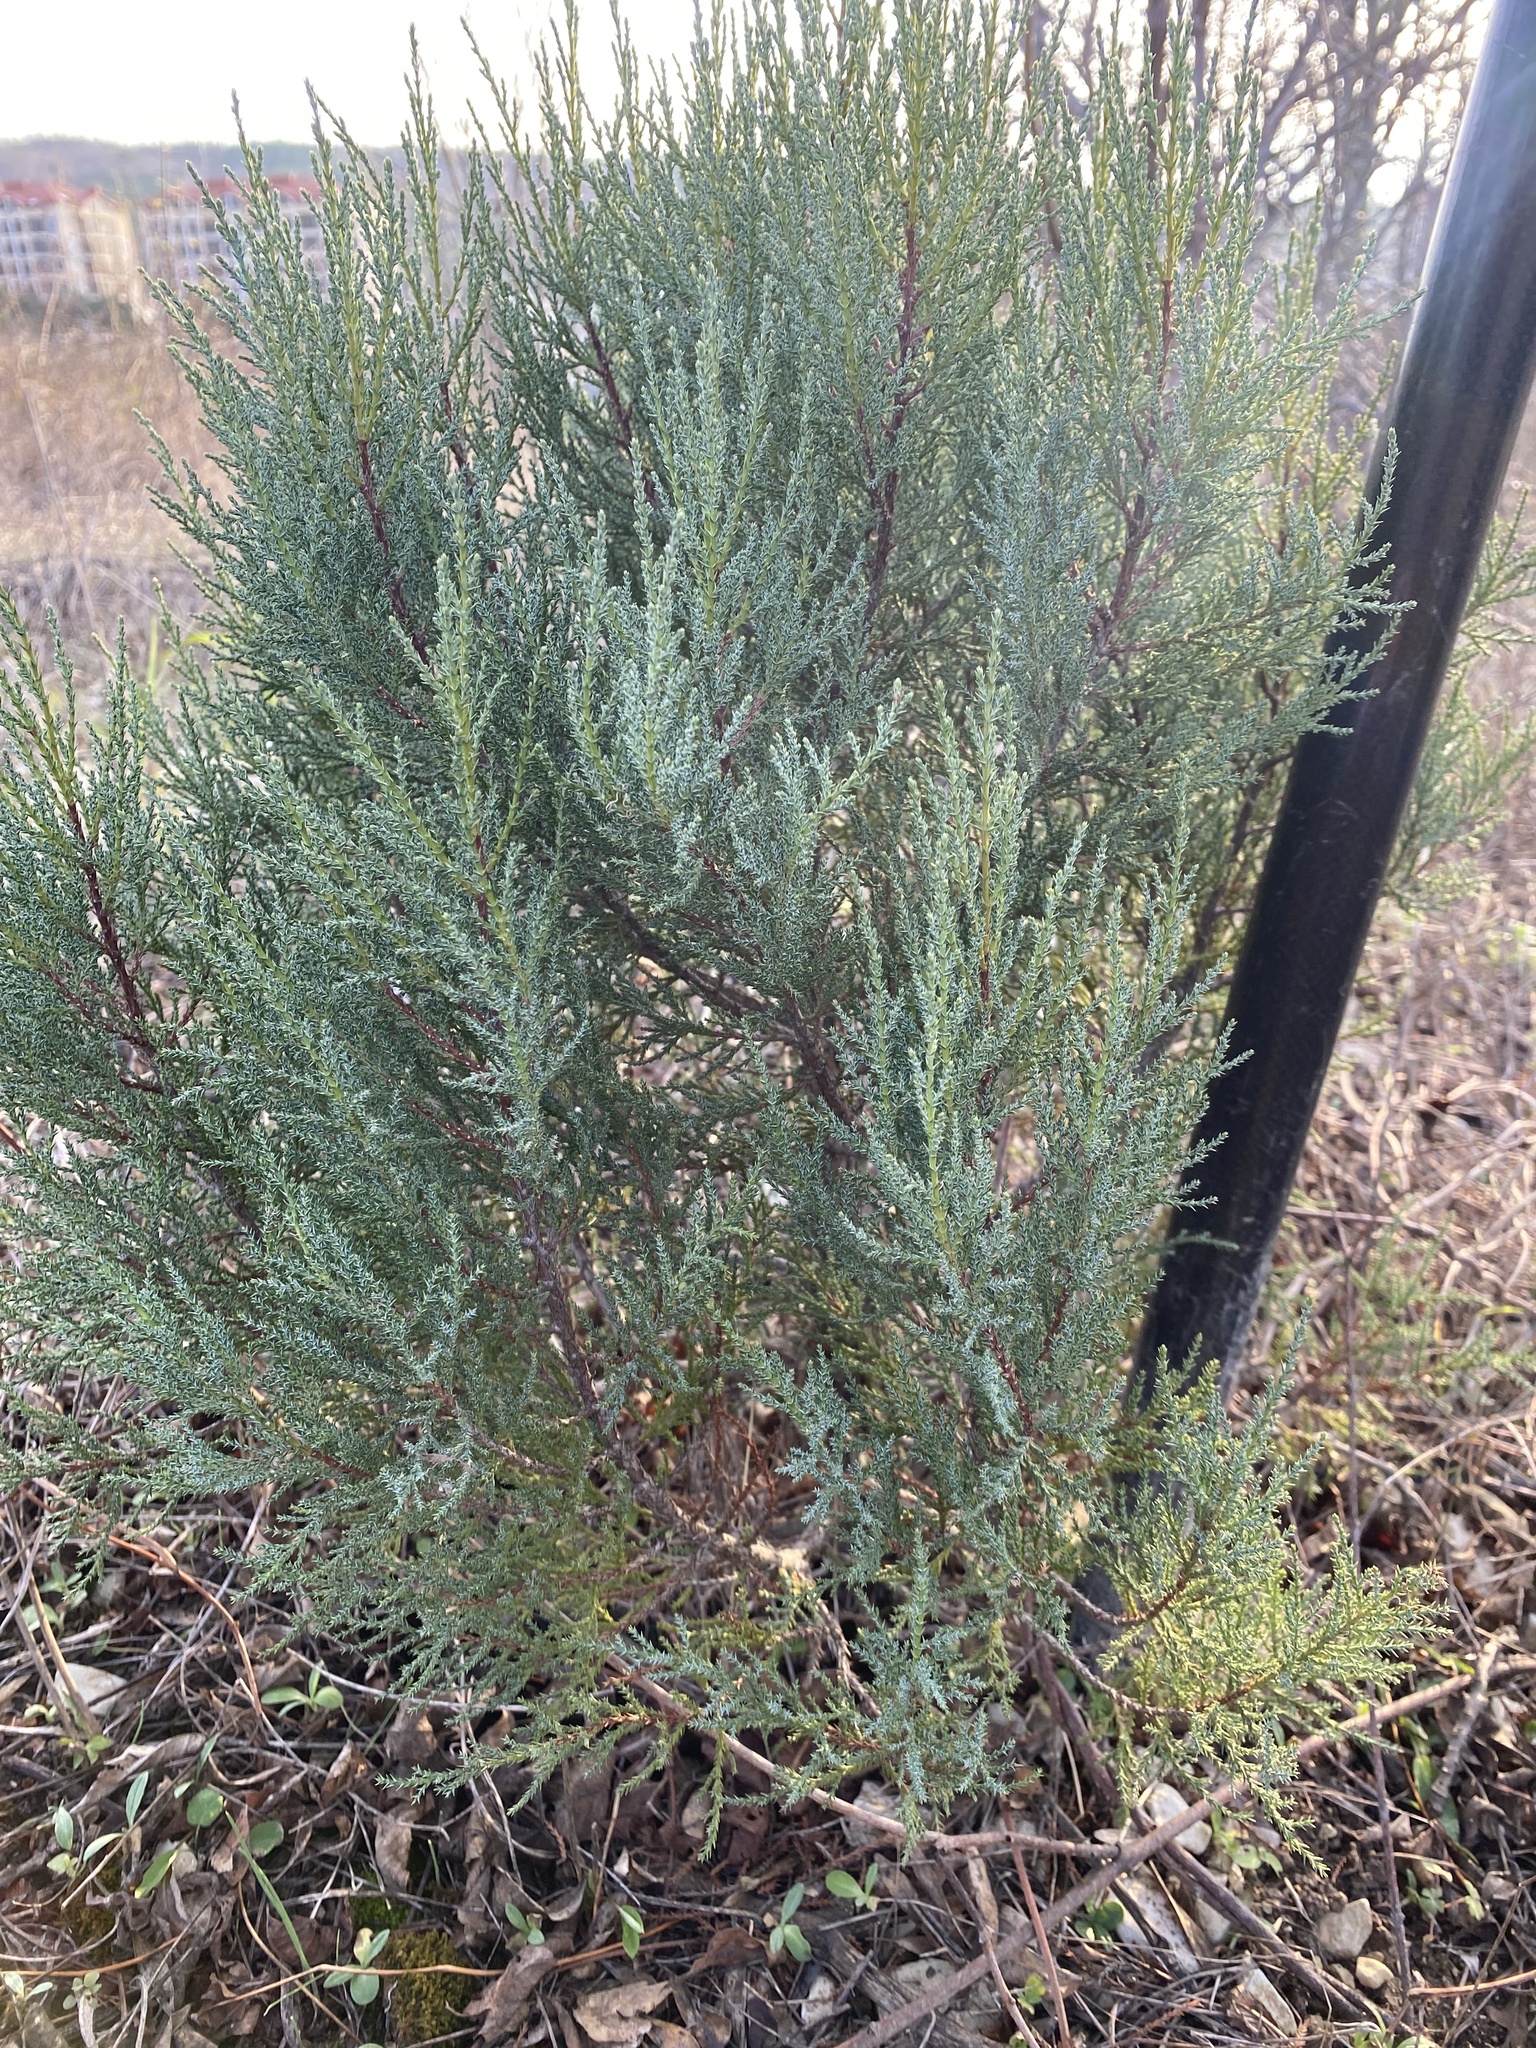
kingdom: Plantae
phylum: Tracheophyta
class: Pinopsida
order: Pinales
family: Cupressaceae
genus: Juniperus
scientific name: Juniperus foetidissima
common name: Stinking juniper
